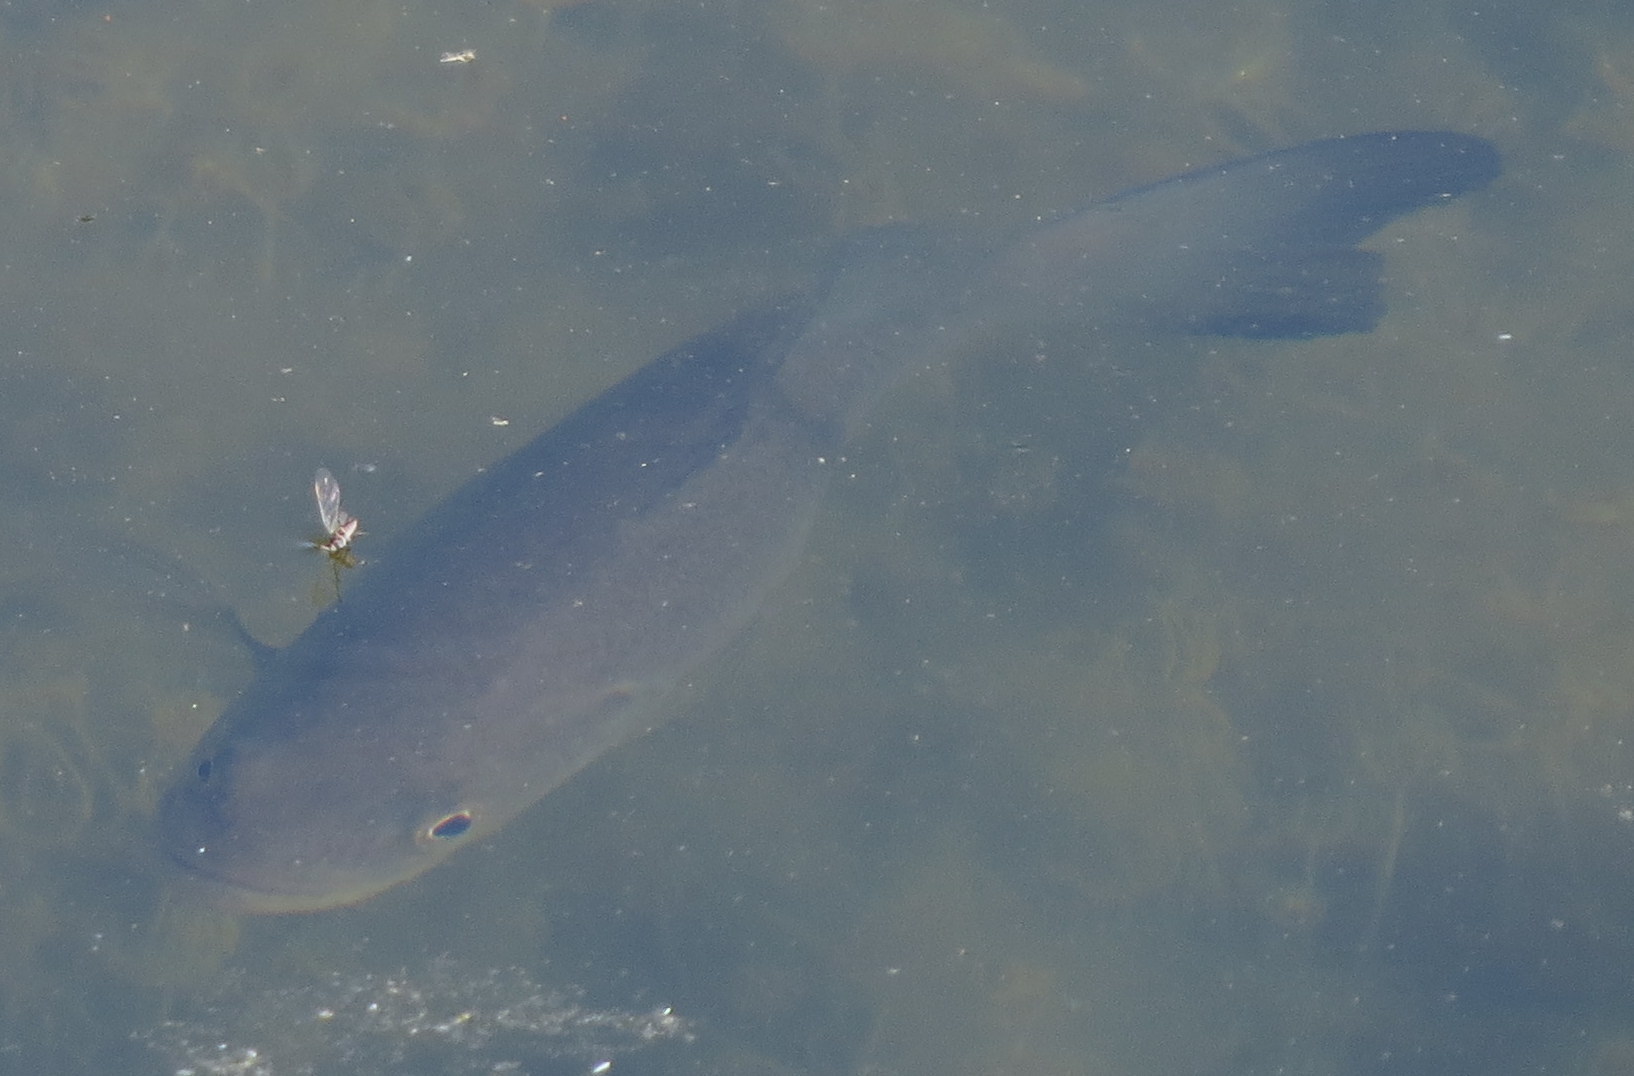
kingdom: Animalia
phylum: Chordata
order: Perciformes
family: Centrarchidae
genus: Micropterus
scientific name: Micropterus
